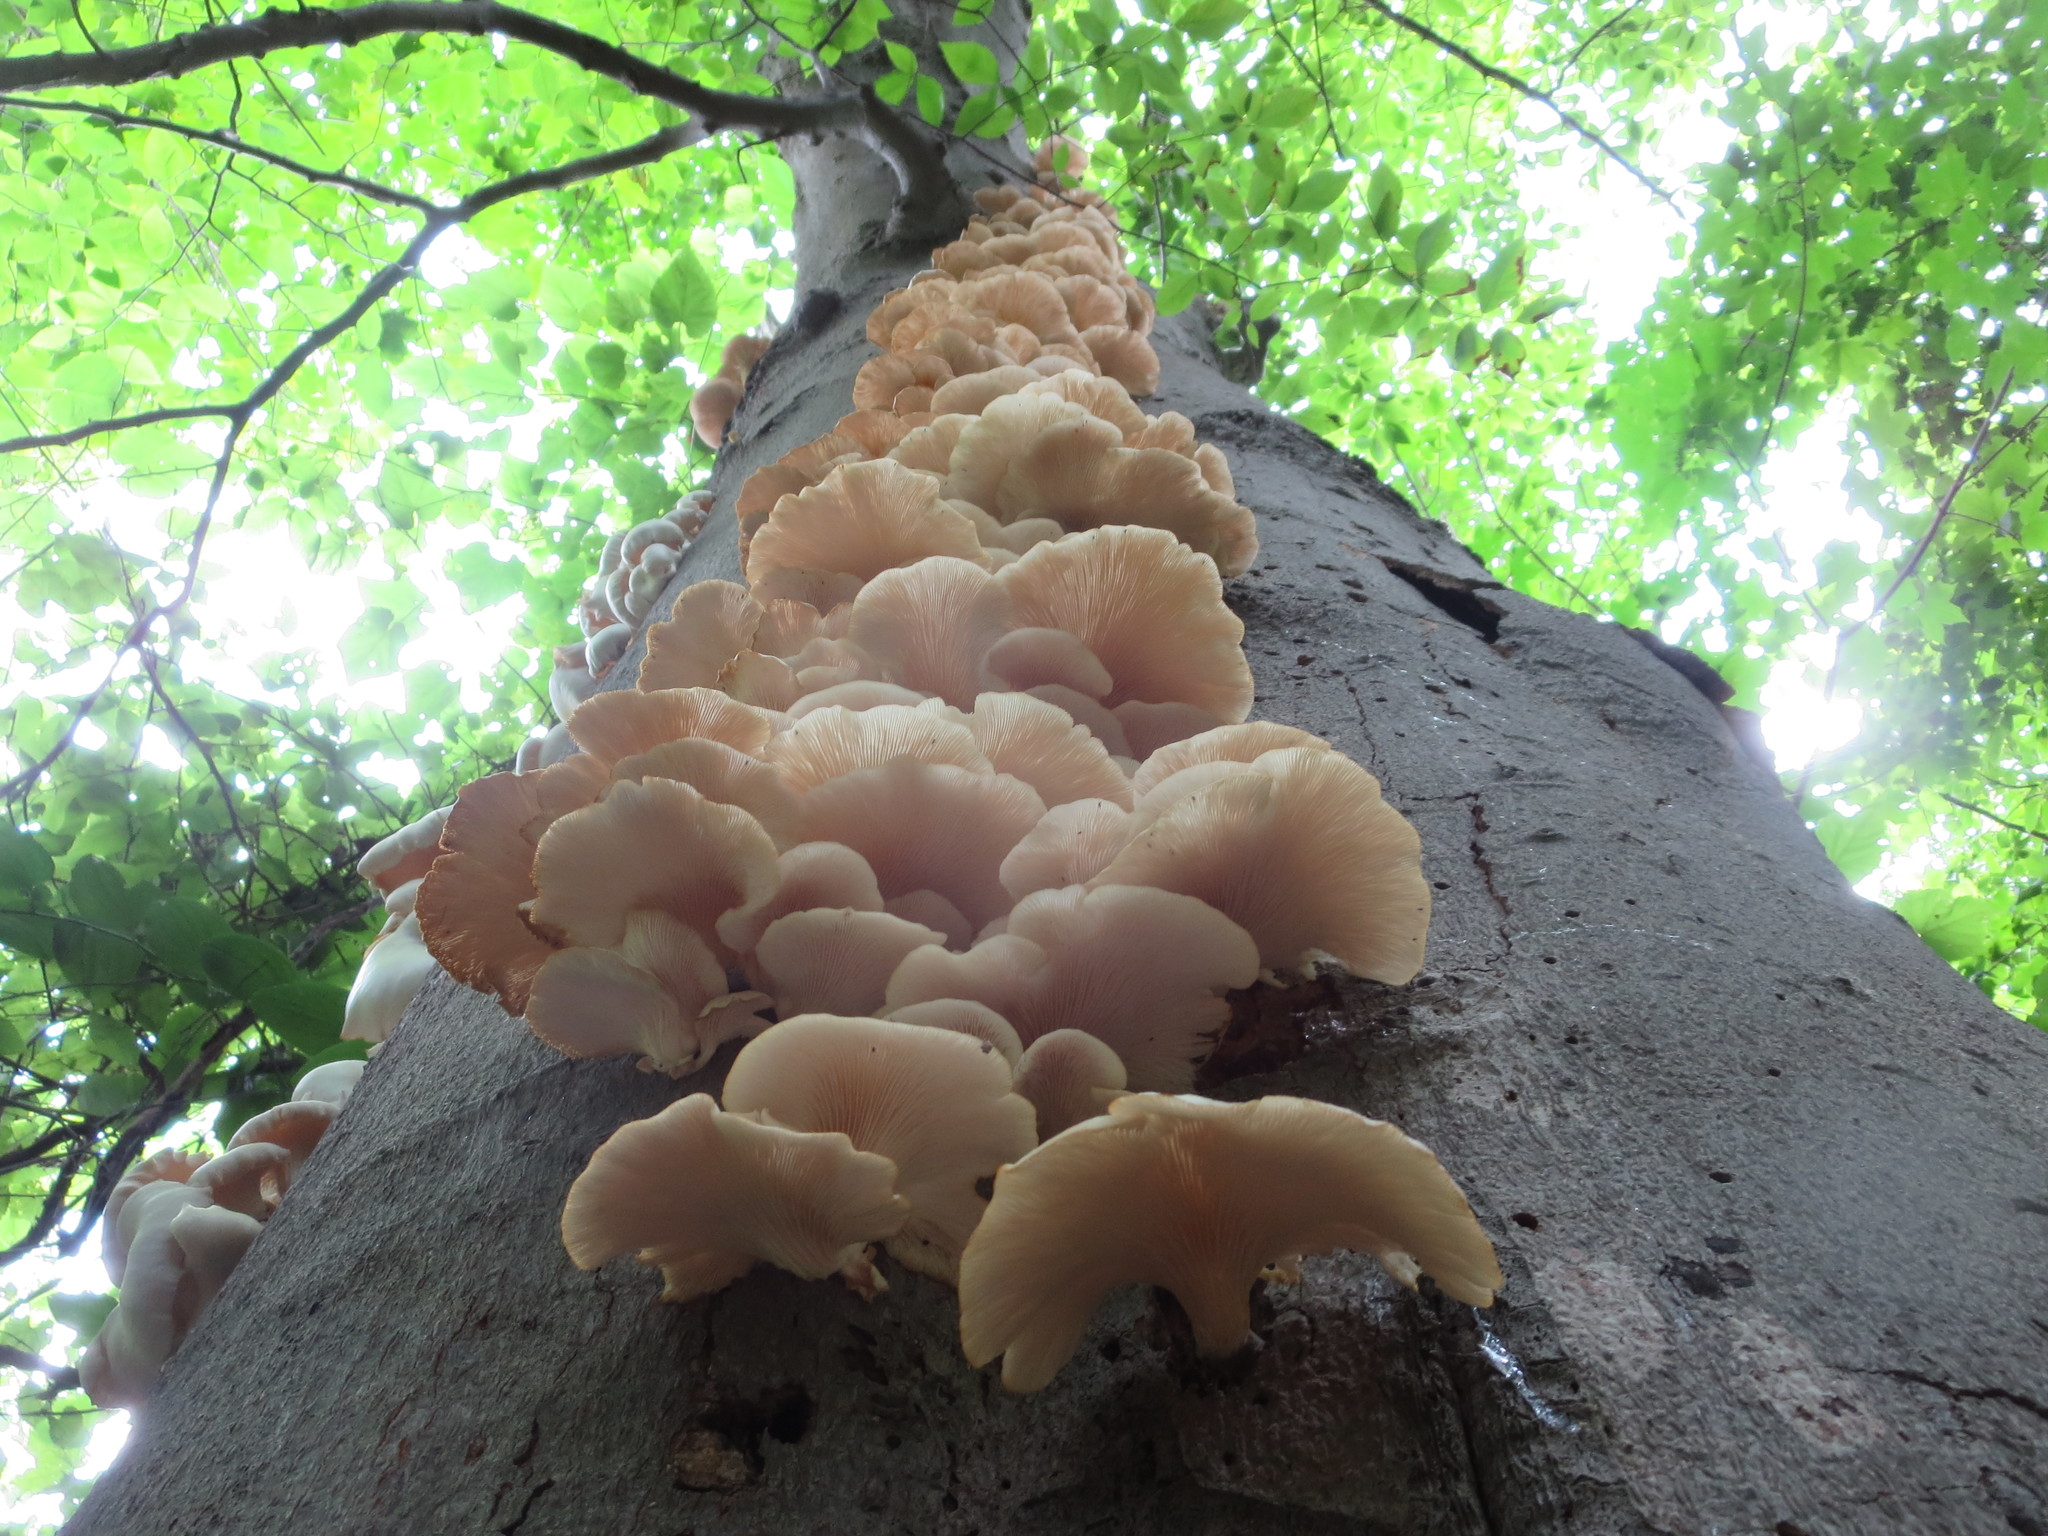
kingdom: Fungi
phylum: Basidiomycota
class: Agaricomycetes
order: Agaricales
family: Pleurotaceae
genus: Pleurotus
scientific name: Pleurotus pulmonarius
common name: Pale oyster
